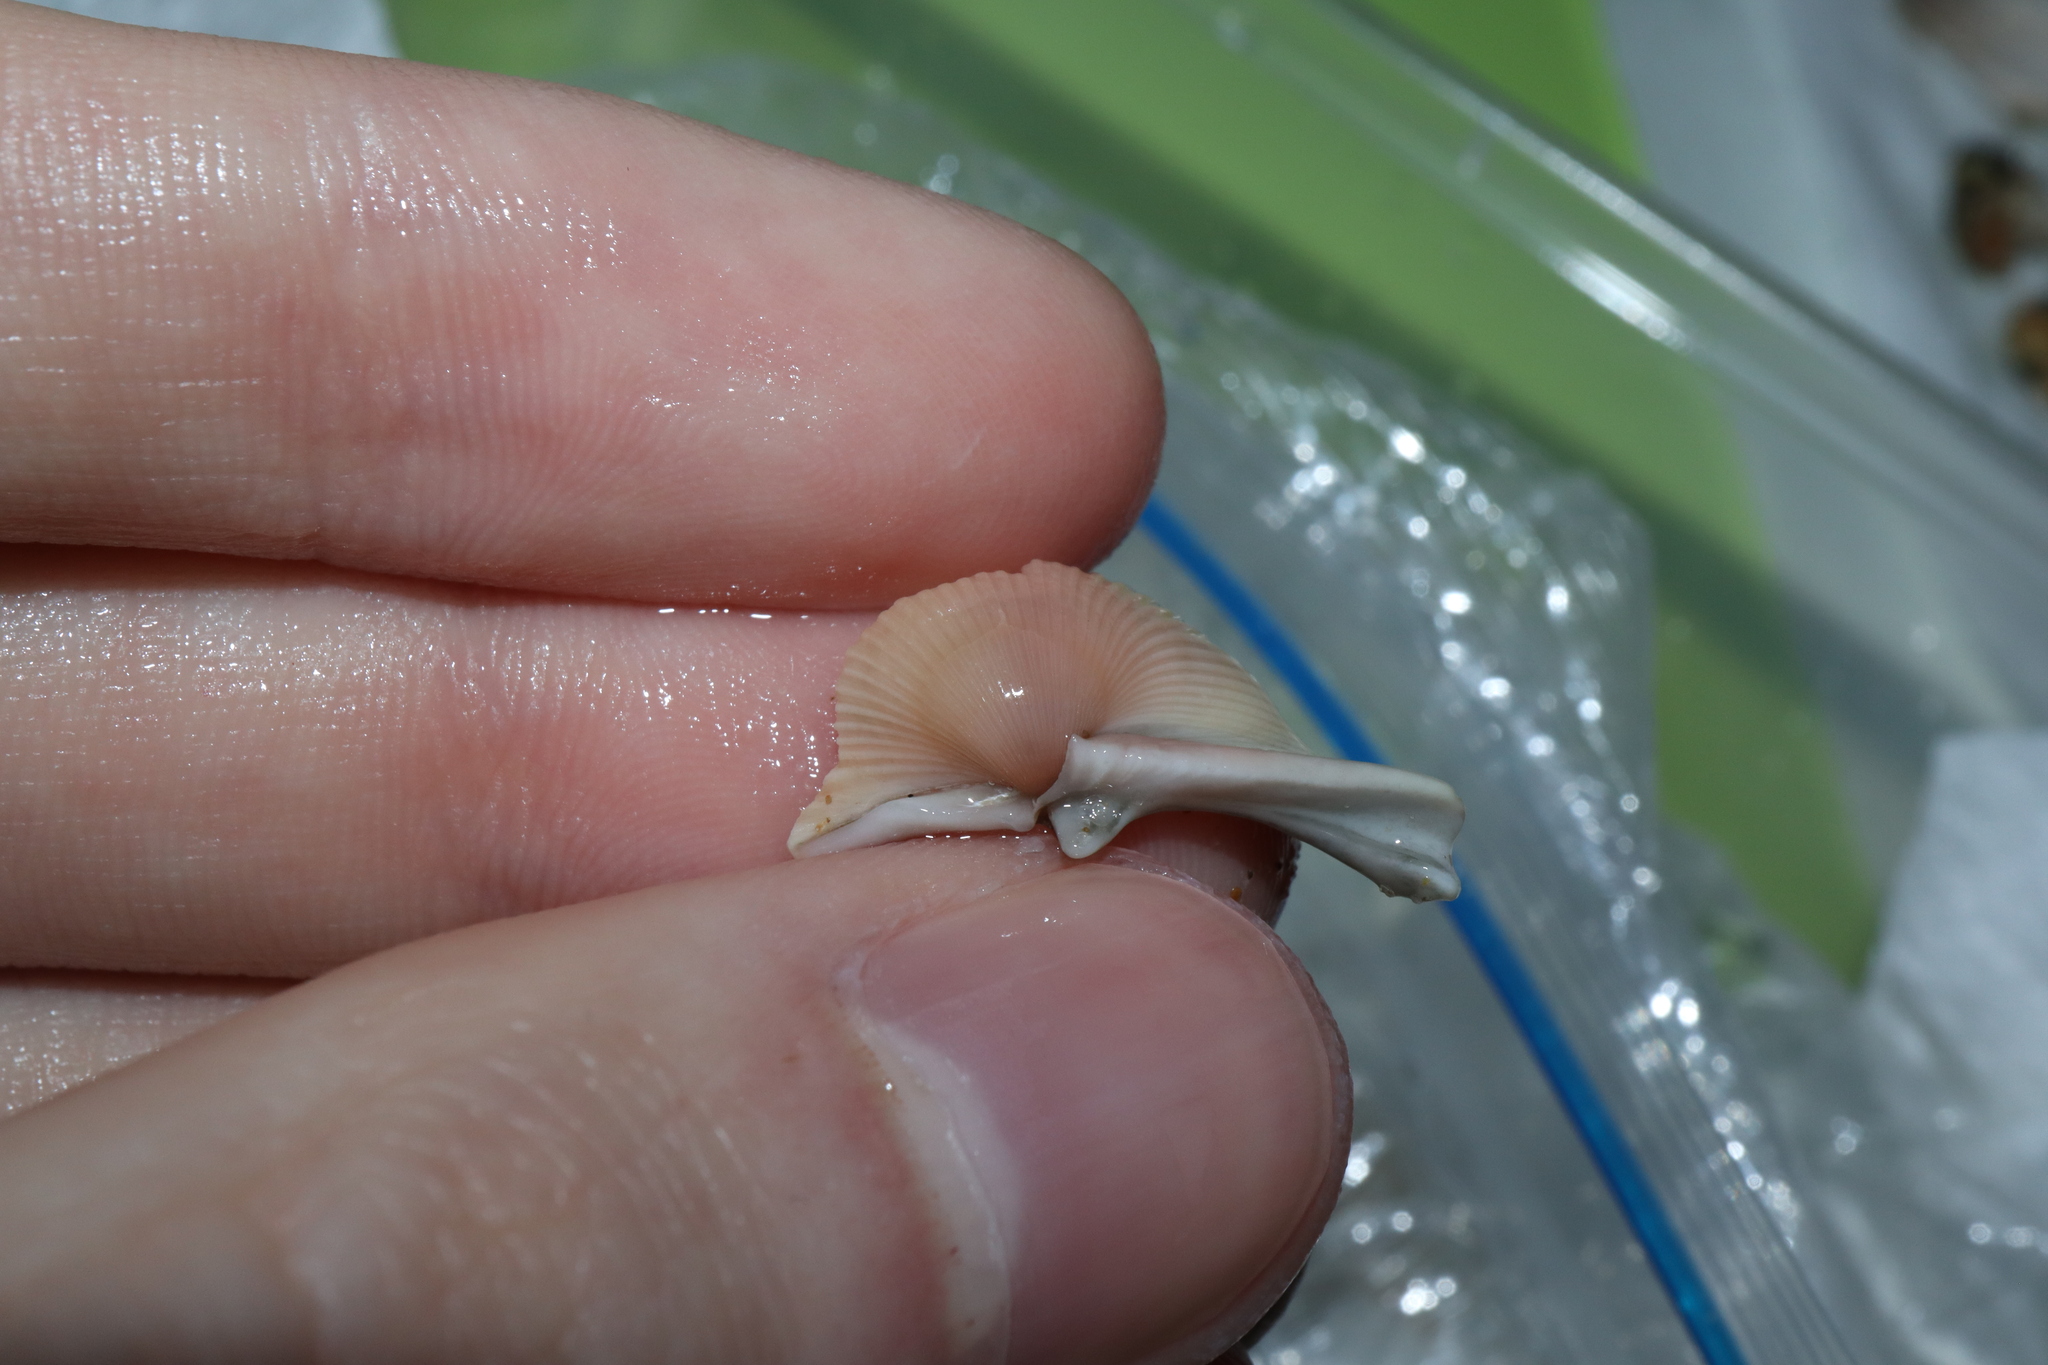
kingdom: Animalia
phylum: Mollusca
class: Bivalvia
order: Cardiida
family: Cardiidae
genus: Vepricardium
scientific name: Vepricardium multispinosum
